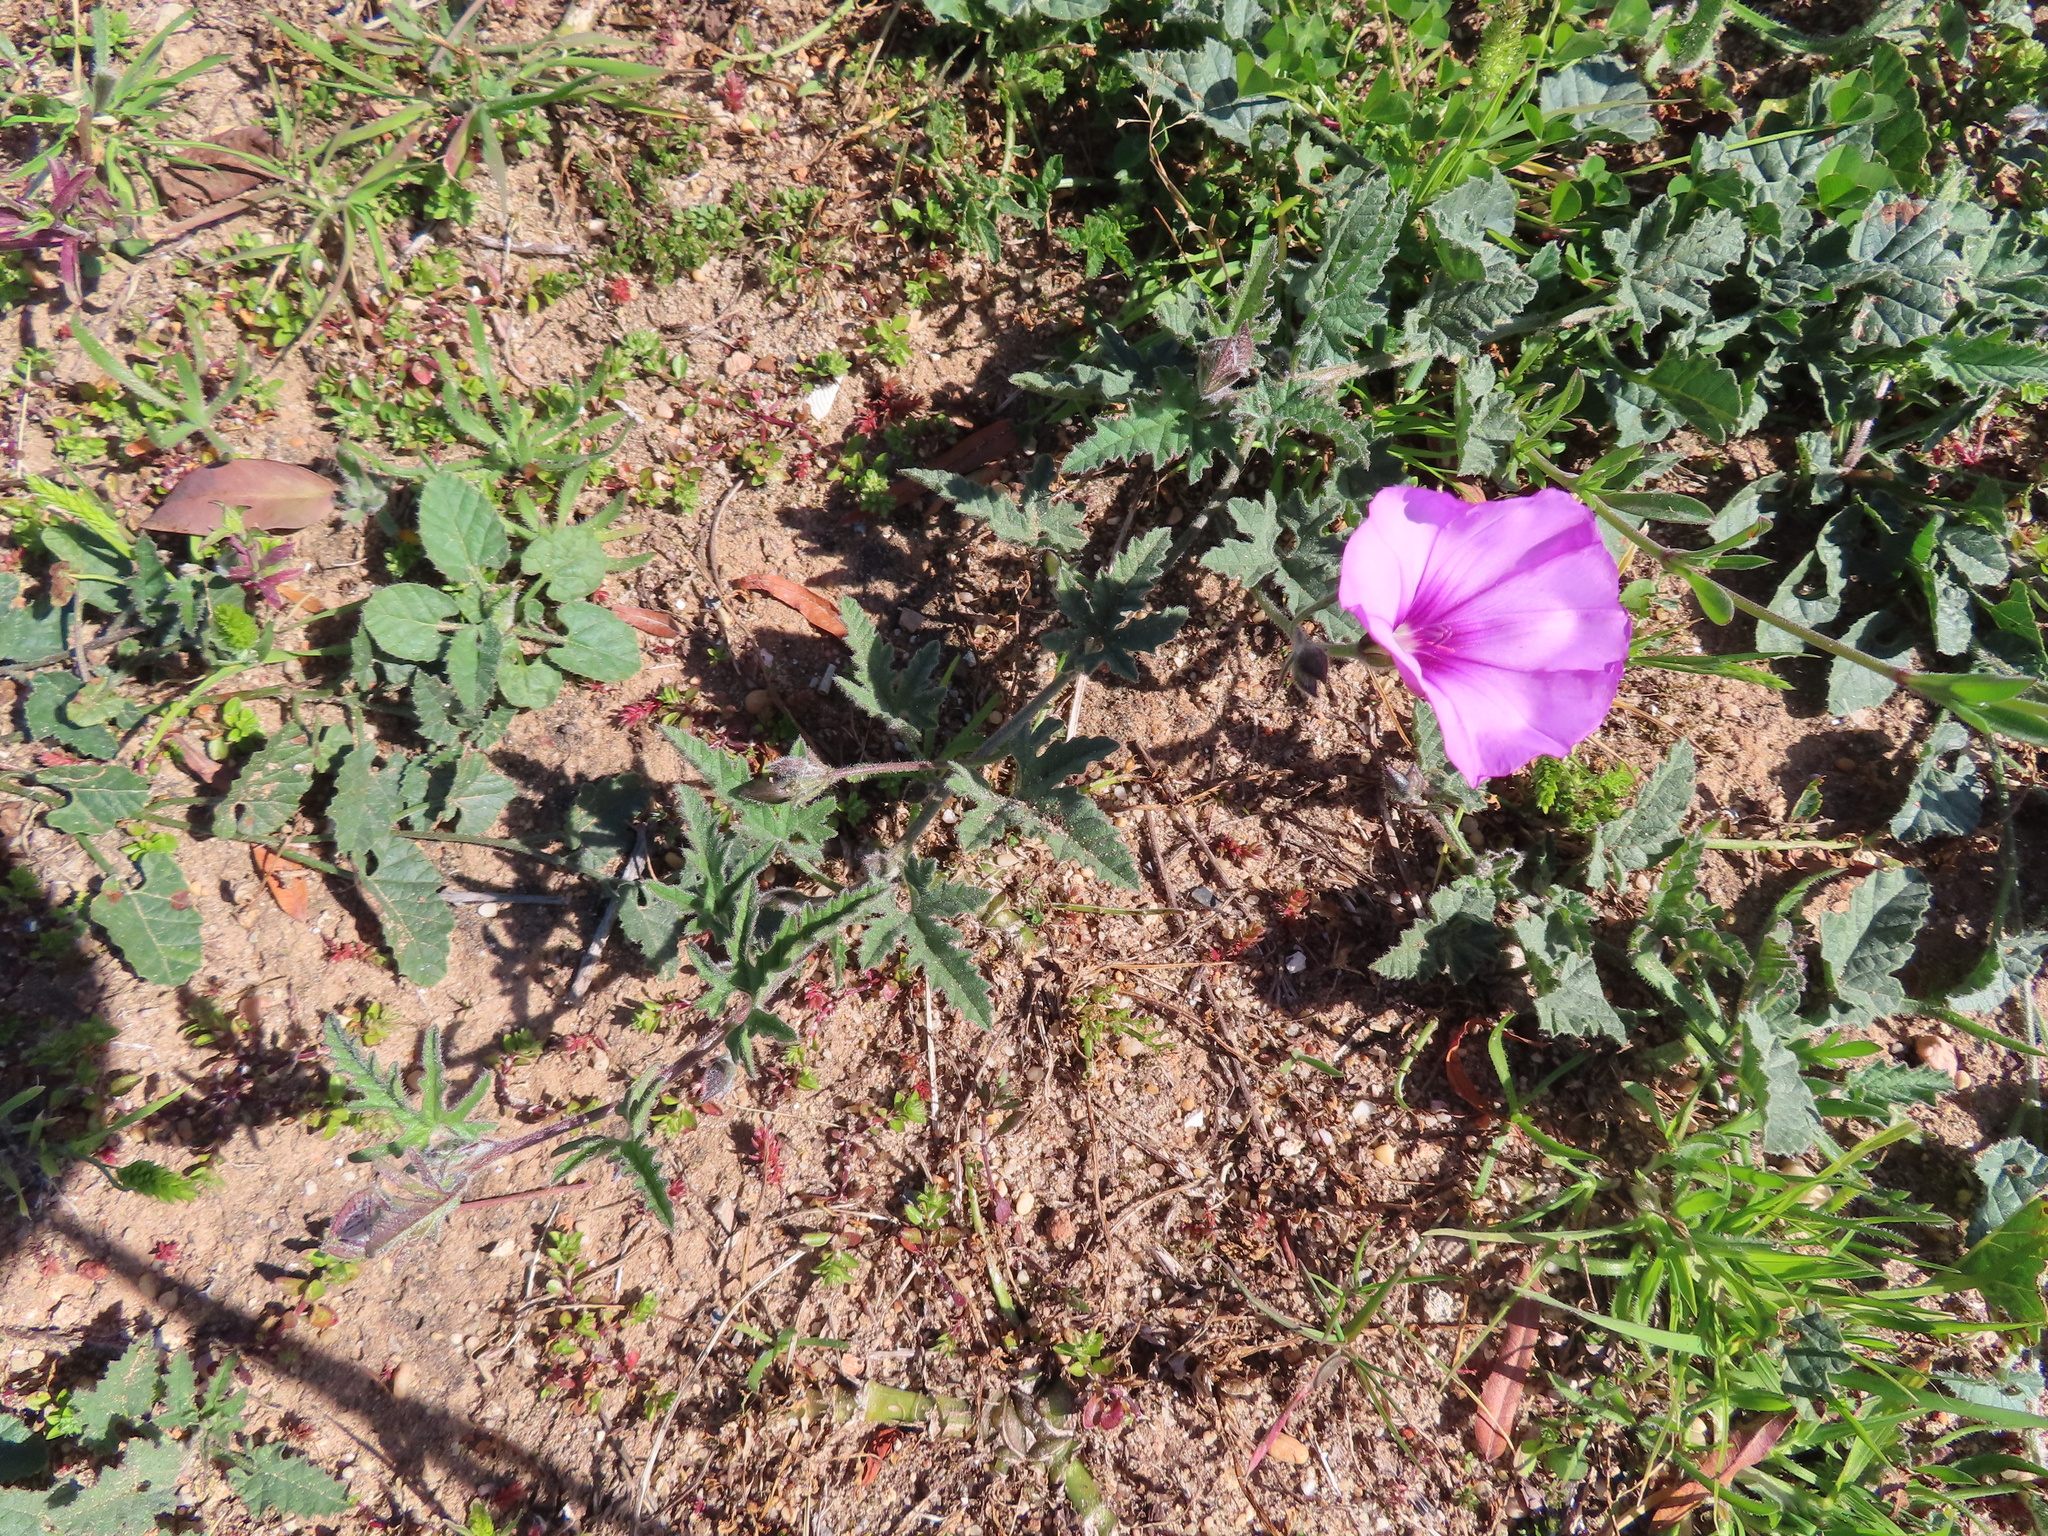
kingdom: Plantae
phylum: Tracheophyta
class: Magnoliopsida
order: Solanales
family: Convolvulaceae
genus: Convolvulus
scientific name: Convolvulus althaeoides
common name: Mallow bindweed
